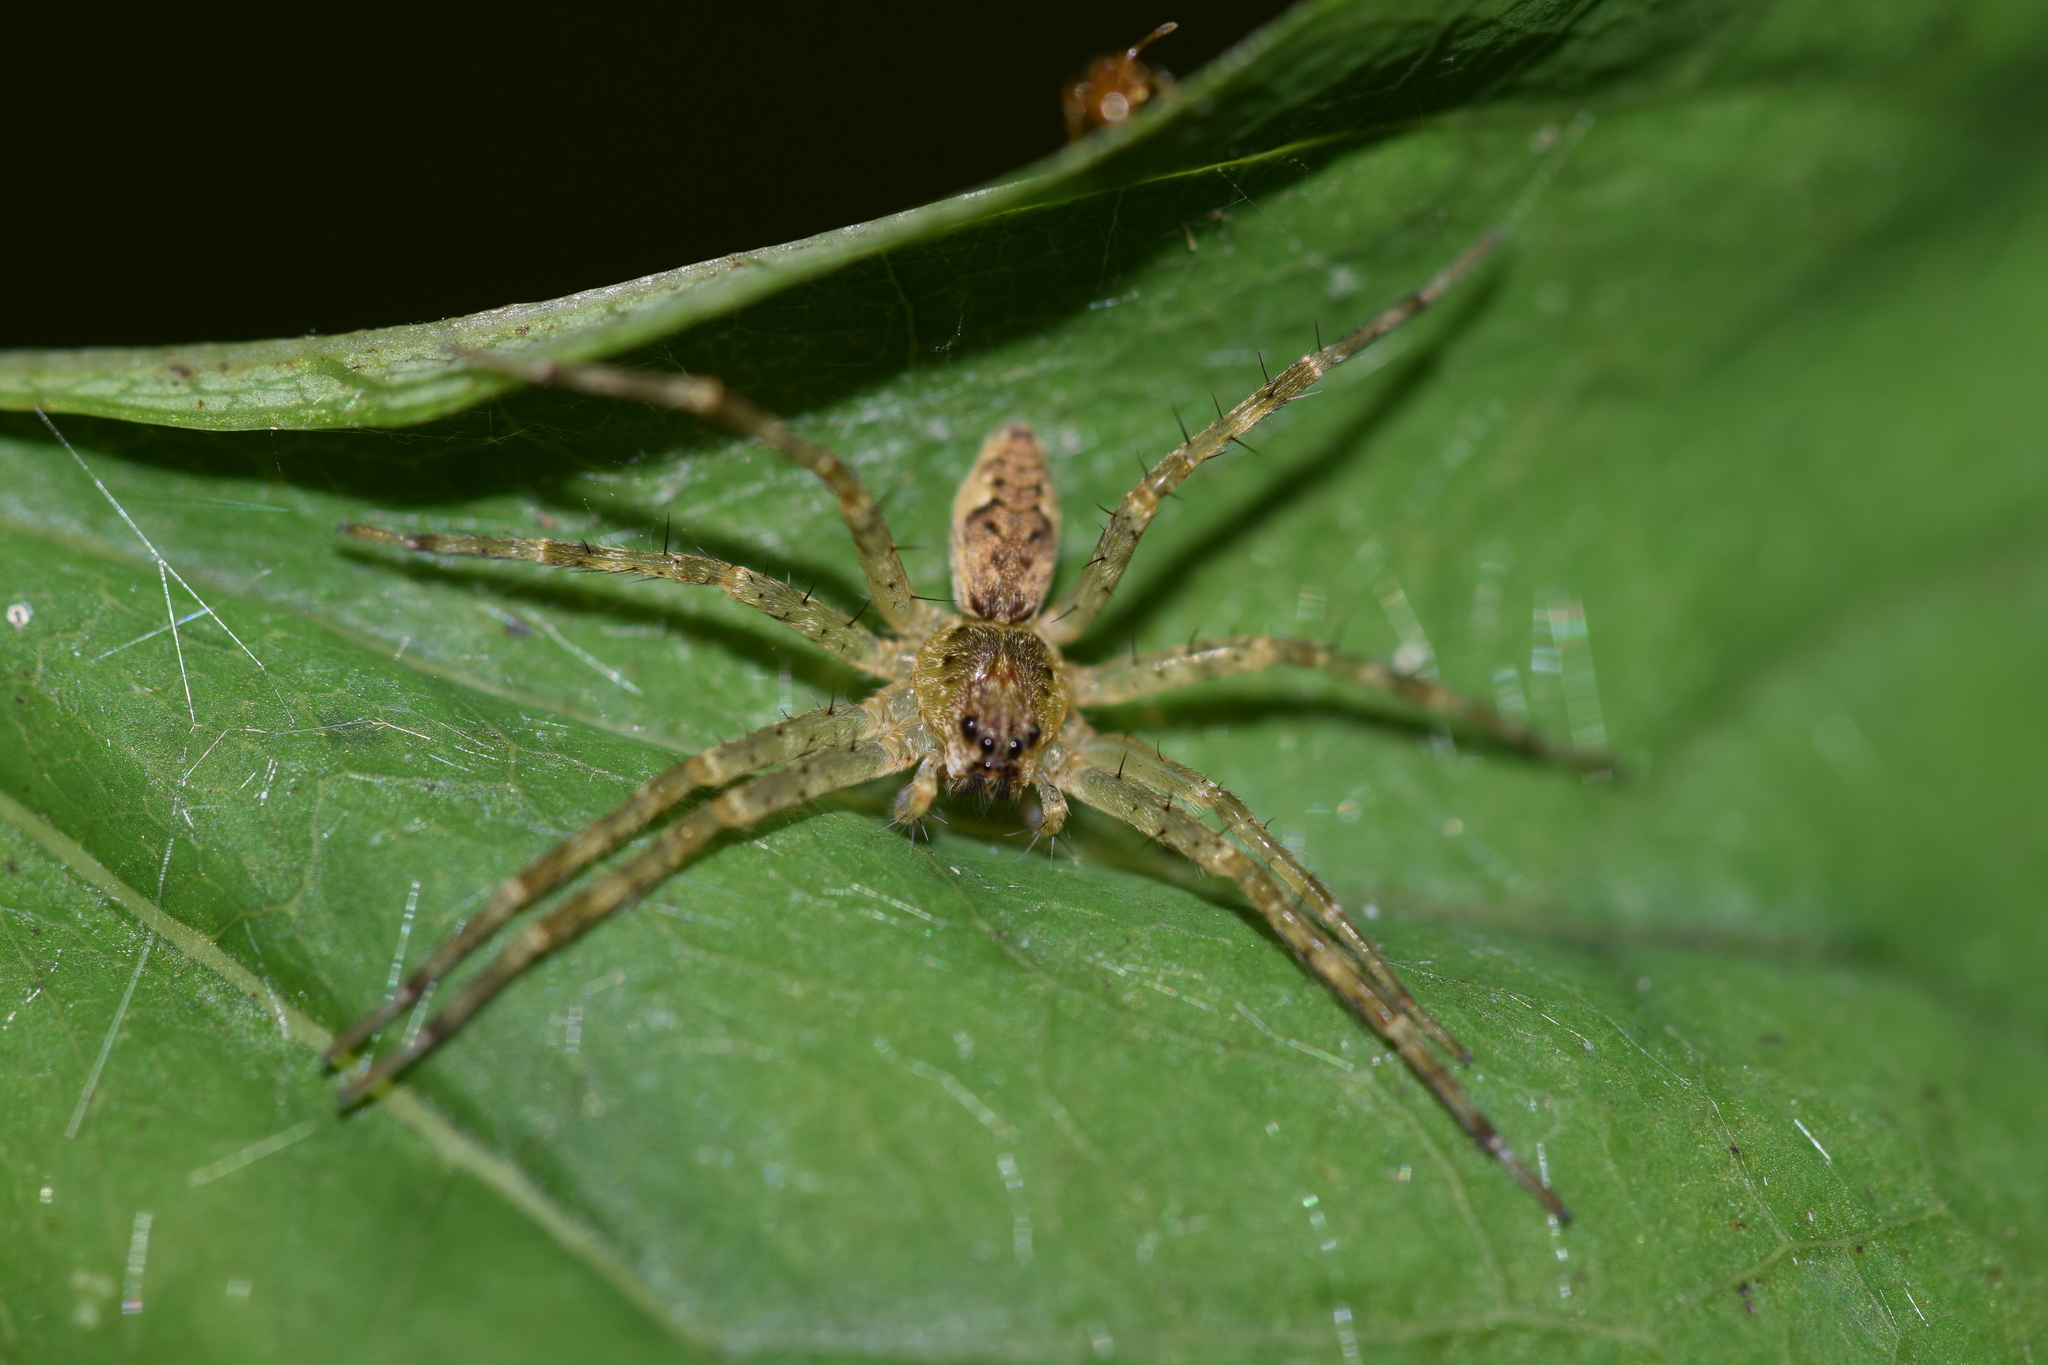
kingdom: Animalia
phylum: Arthropoda
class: Arachnida
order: Araneae
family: Pisauridae
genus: Dolomedes
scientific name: Dolomedes tenebrosus
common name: Dark fishing spider
